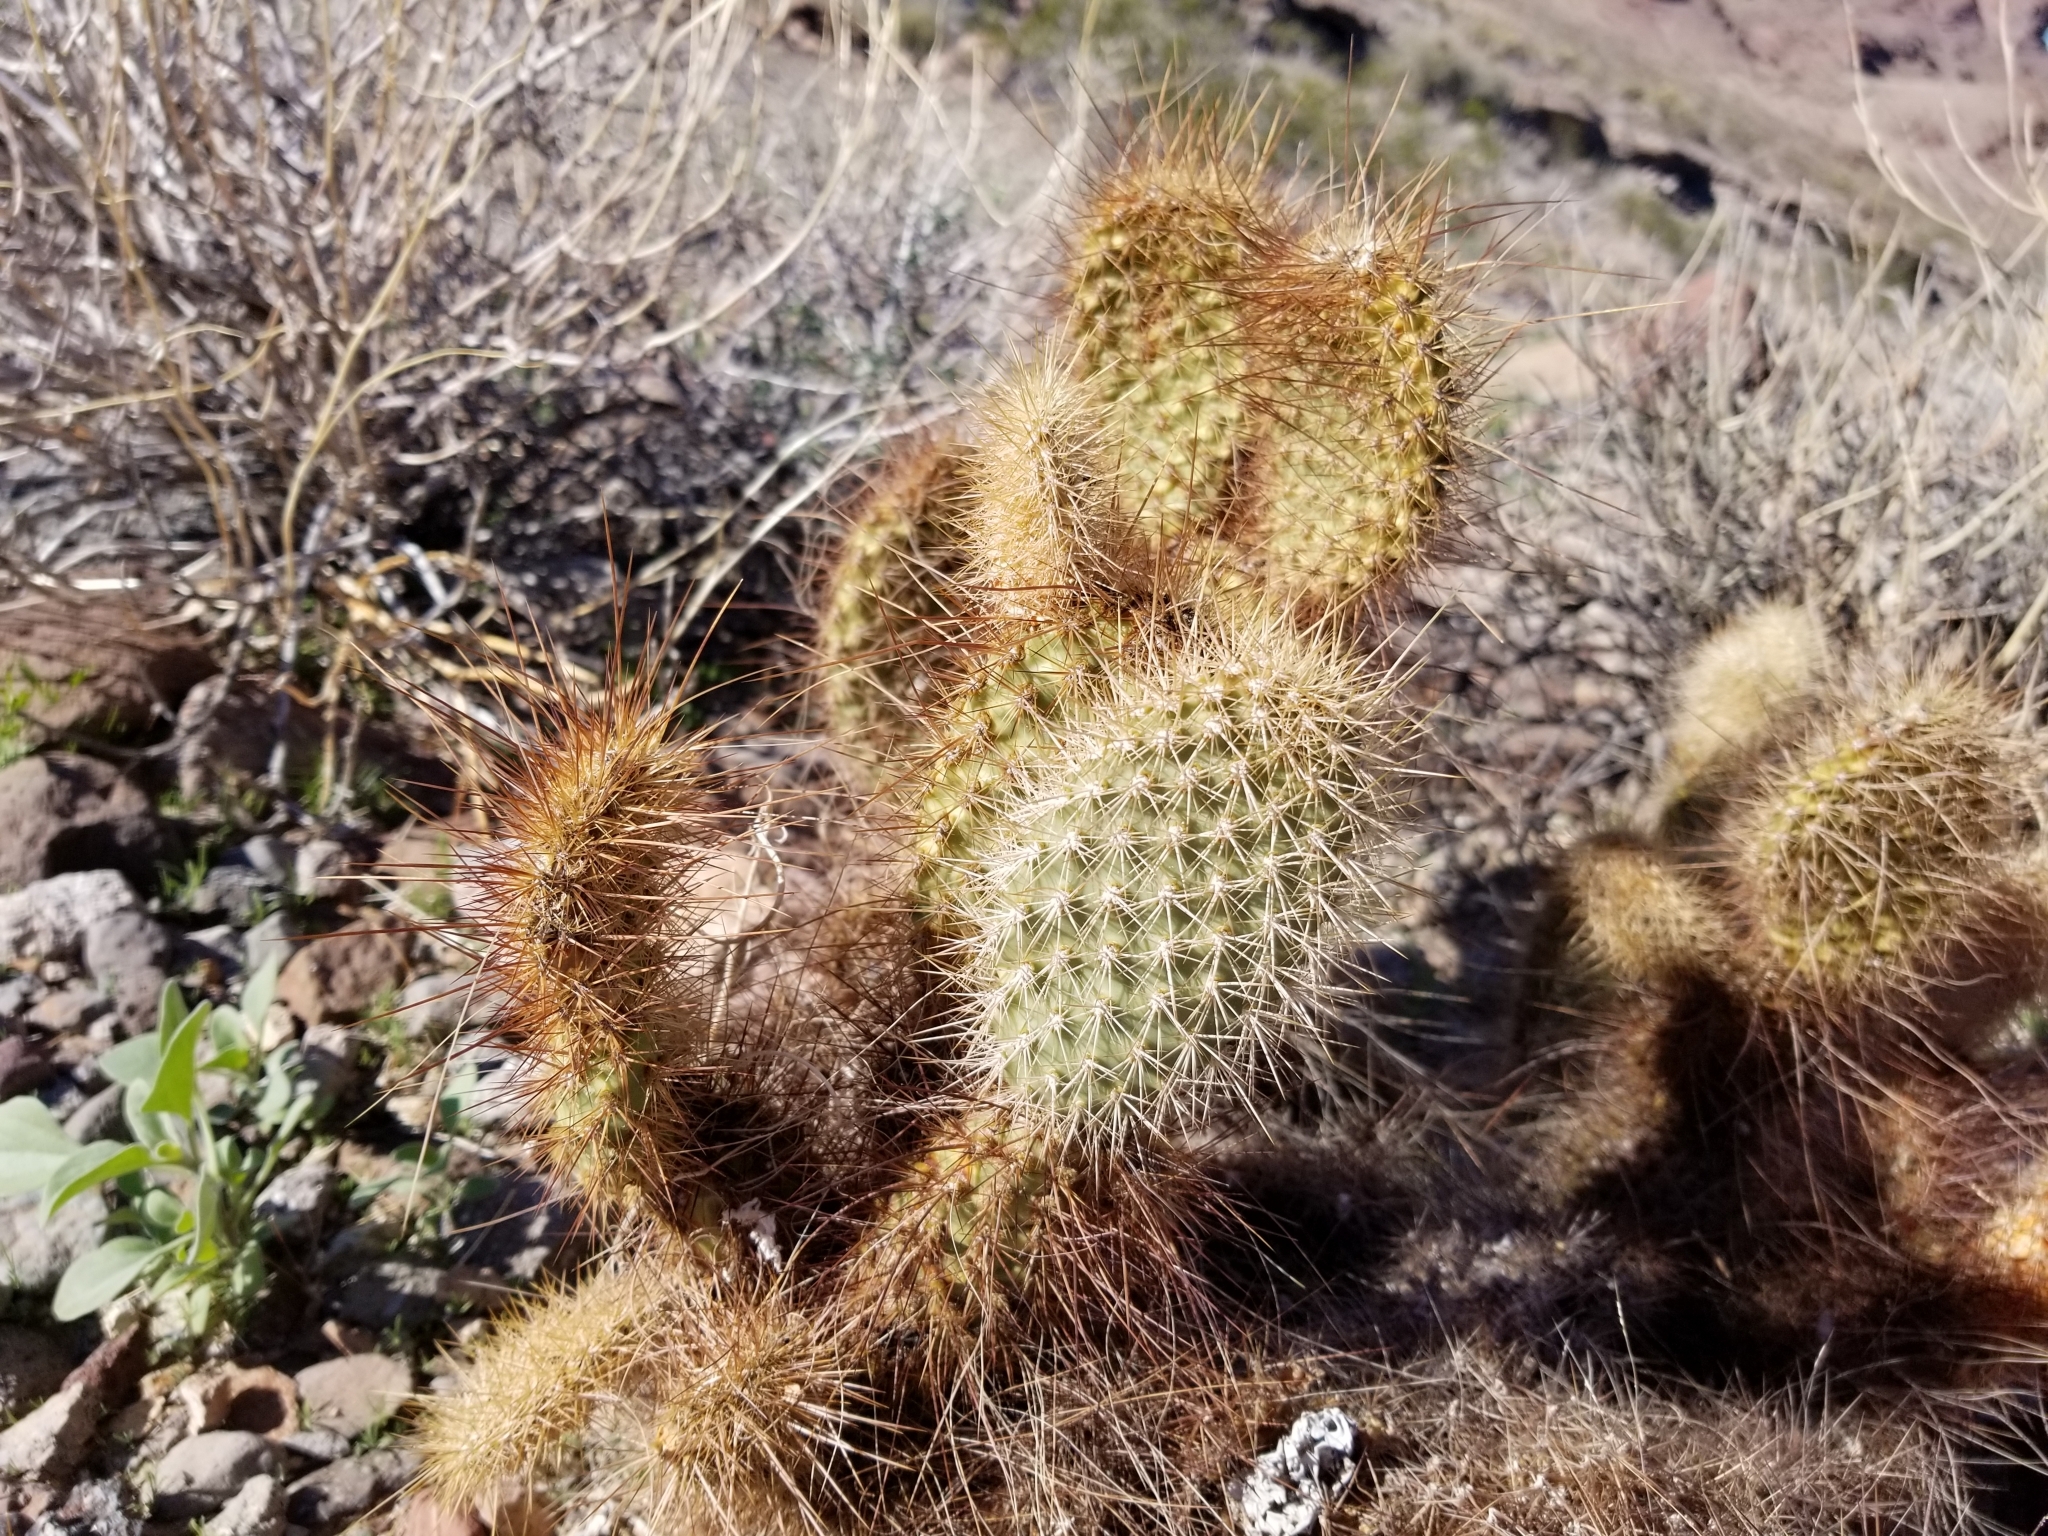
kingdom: Plantae
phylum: Tracheophyta
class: Magnoliopsida
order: Caryophyllales
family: Cactaceae
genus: Opuntia
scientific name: Opuntia polyacantha
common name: Plains prickly-pear
